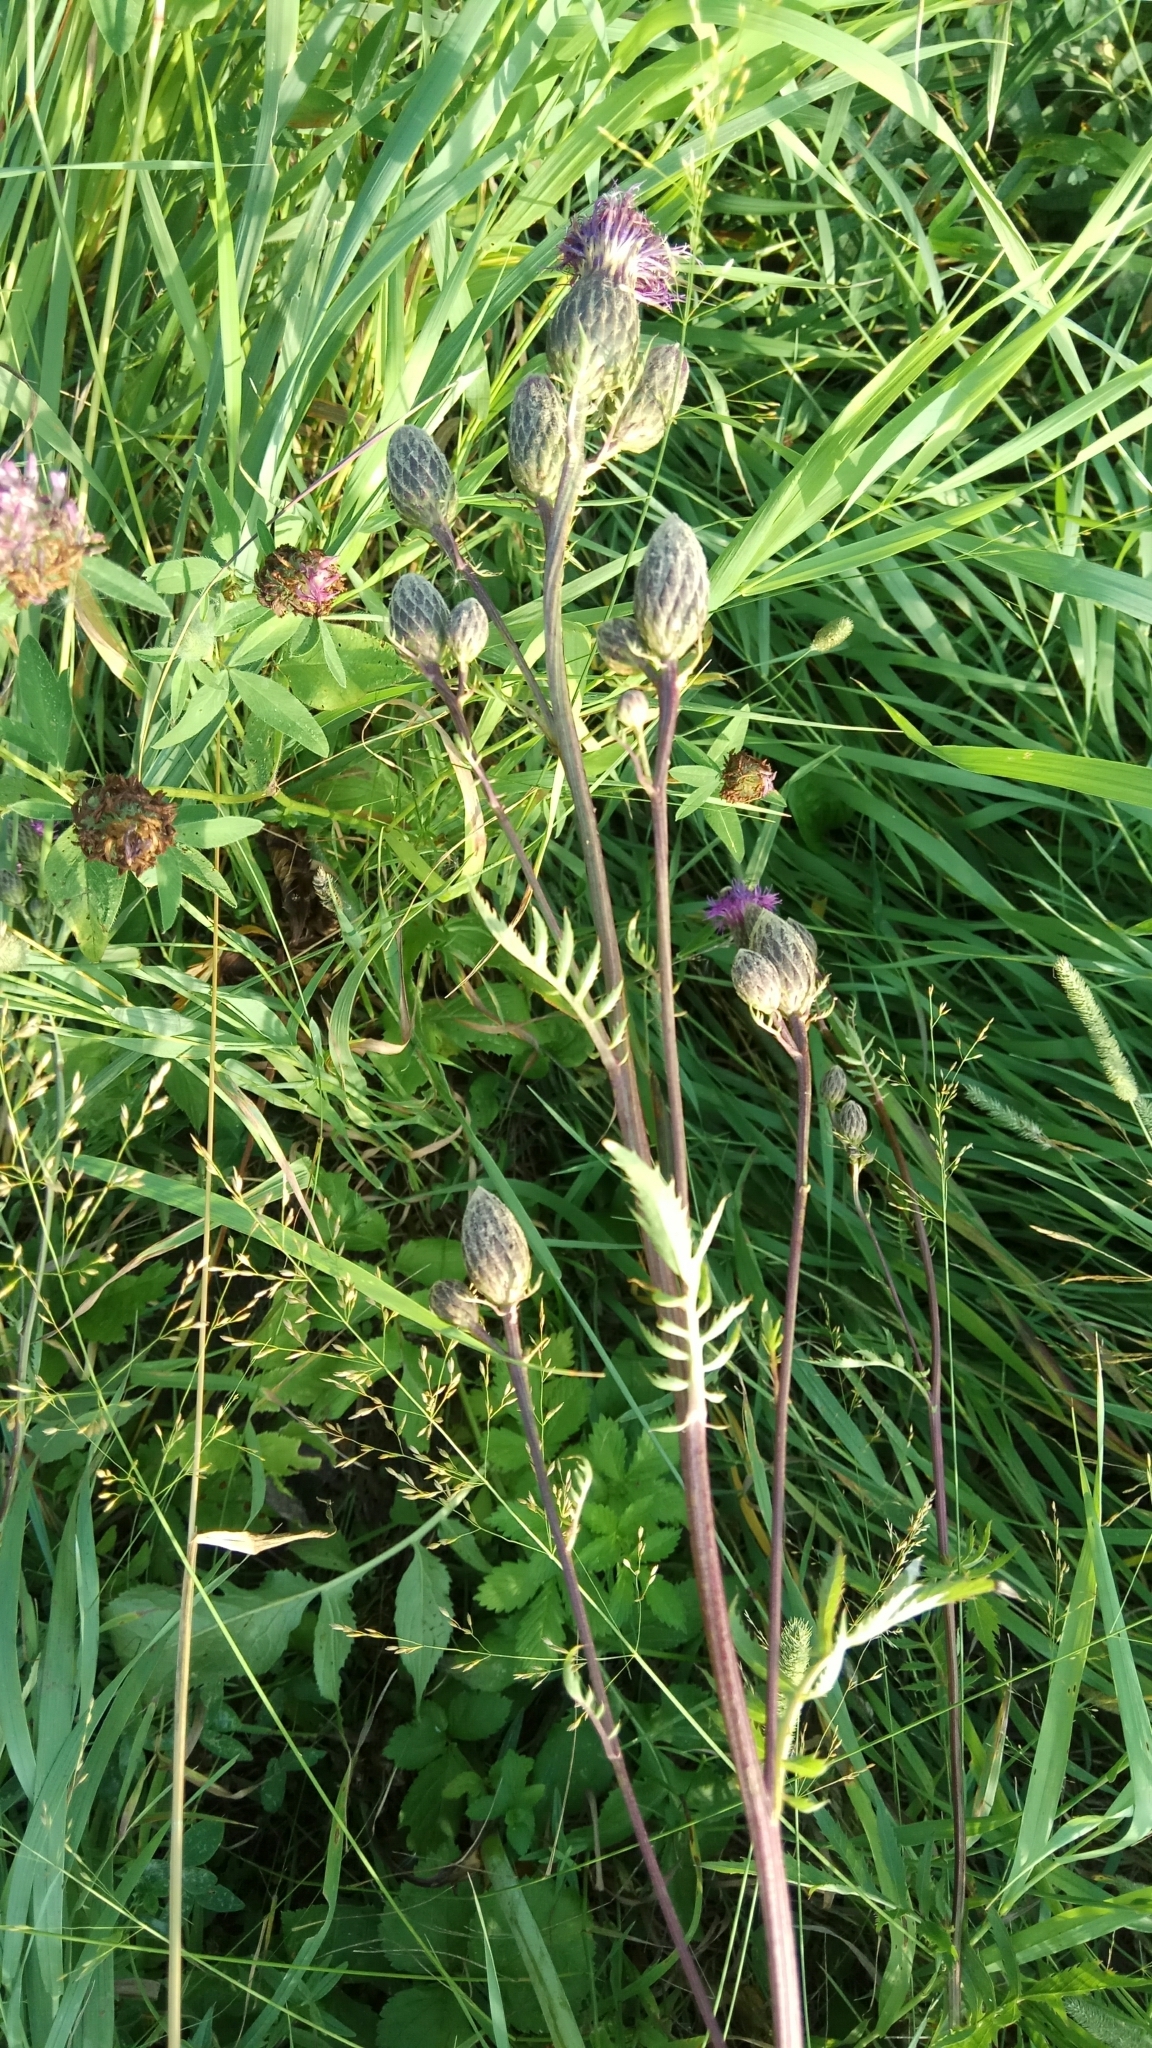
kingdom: Plantae
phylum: Tracheophyta
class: Magnoliopsida
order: Asterales
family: Asteraceae
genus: Serratula
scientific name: Serratula coronata
